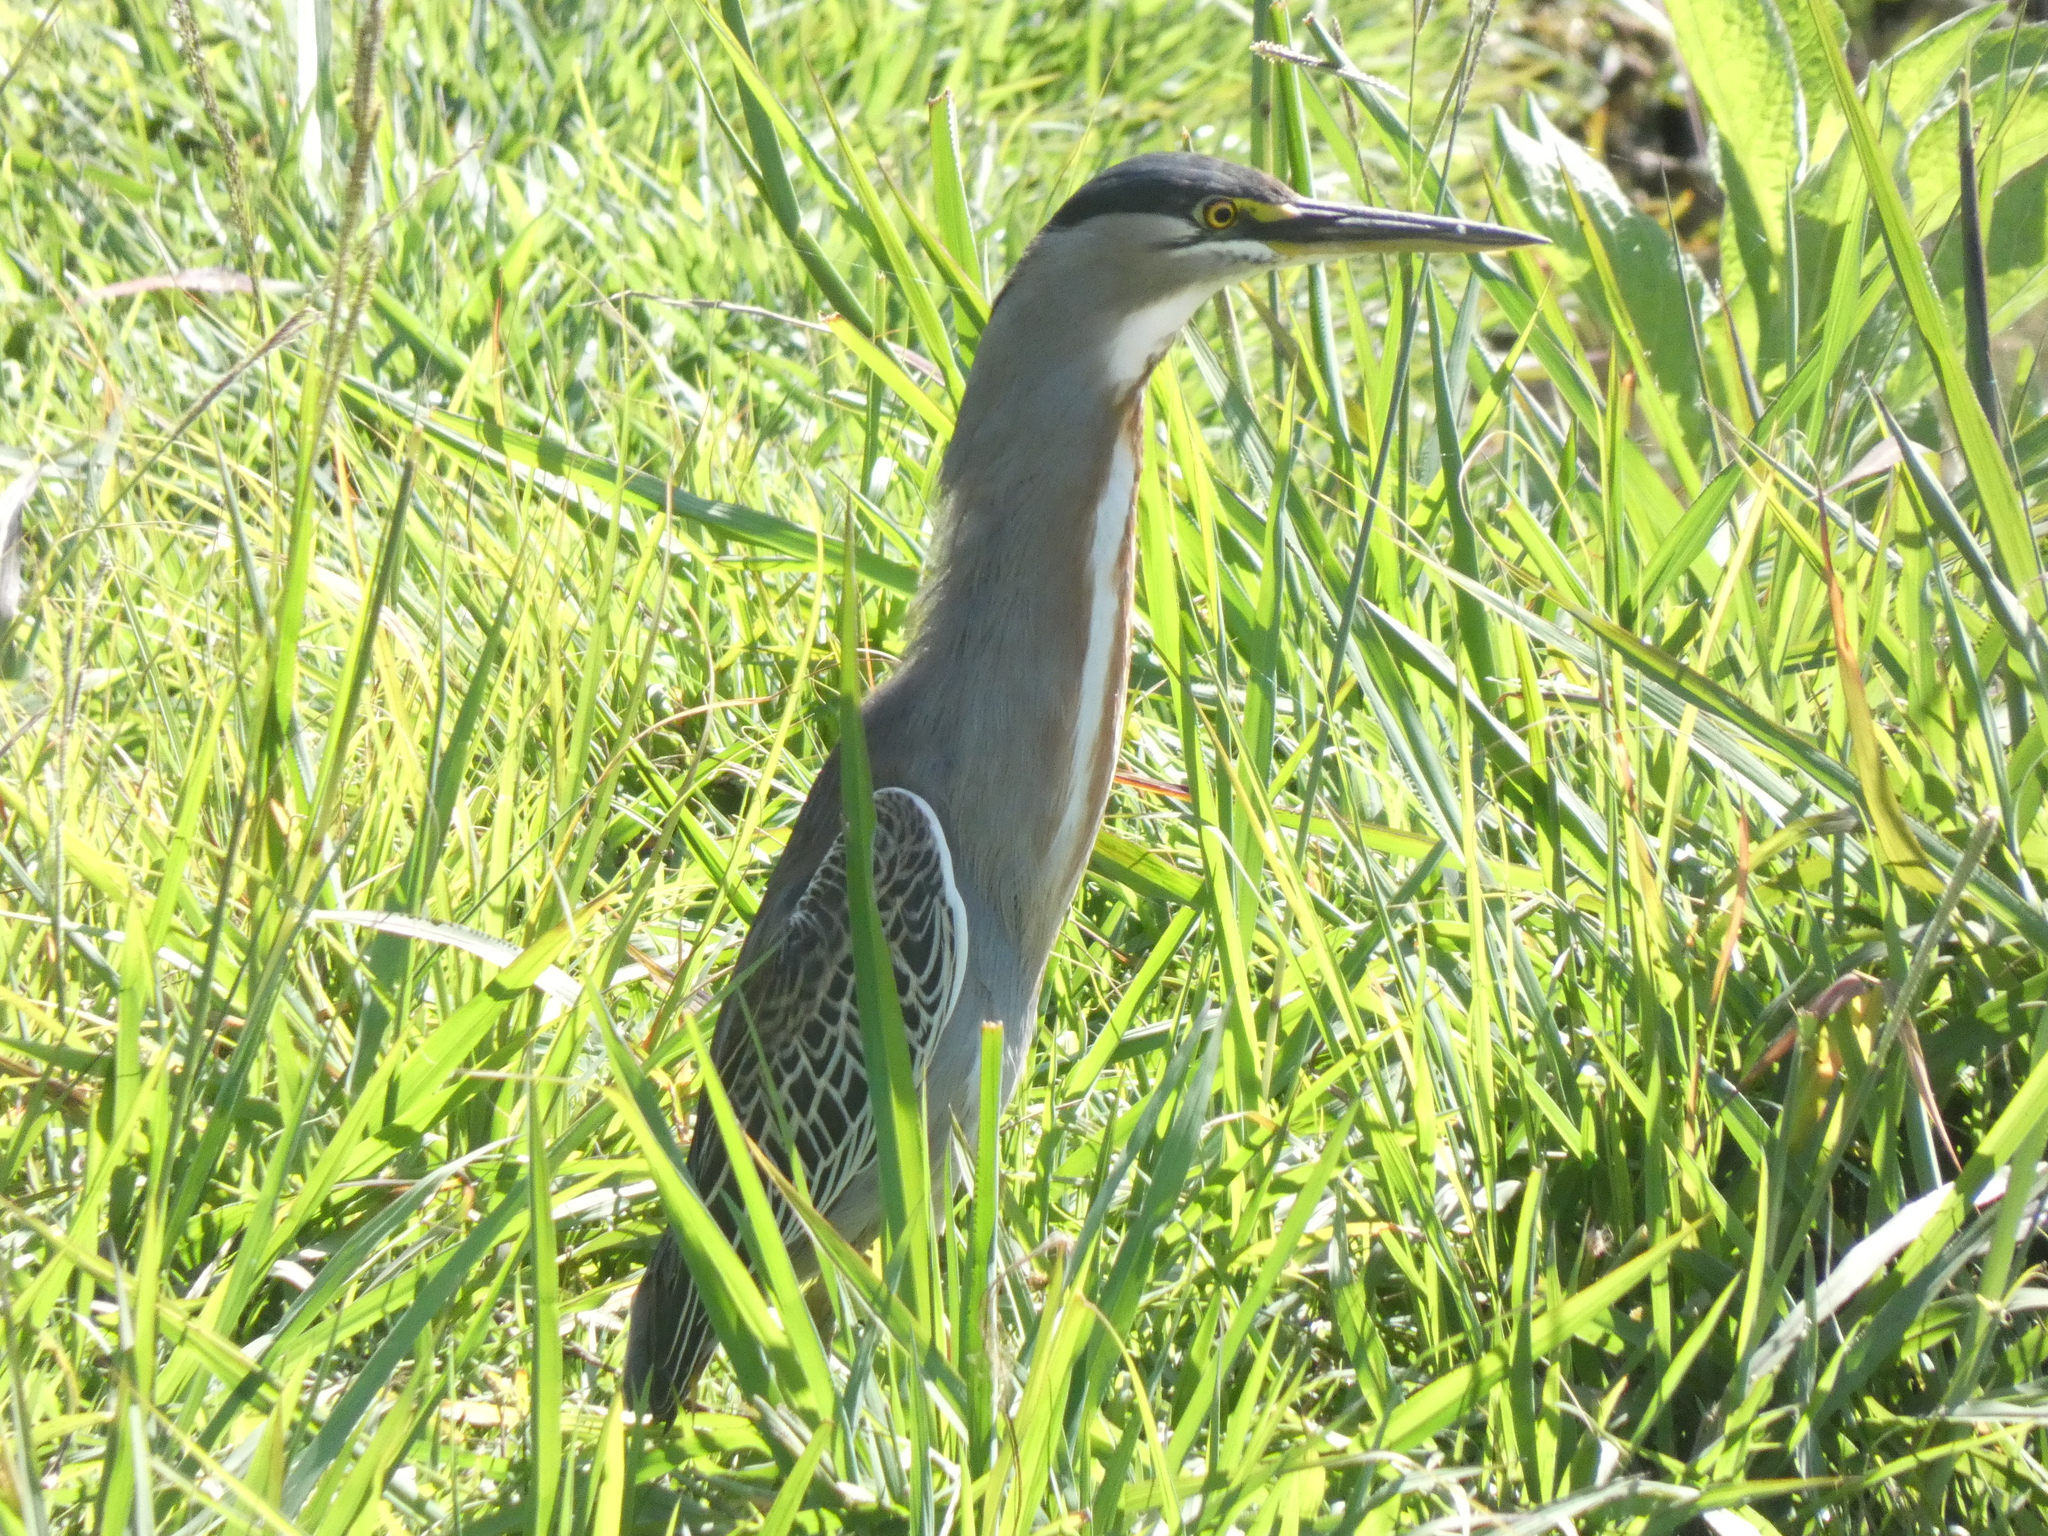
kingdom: Animalia
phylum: Chordata
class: Aves
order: Pelecaniformes
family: Ardeidae
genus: Butorides
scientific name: Butorides striata
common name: Striated heron
